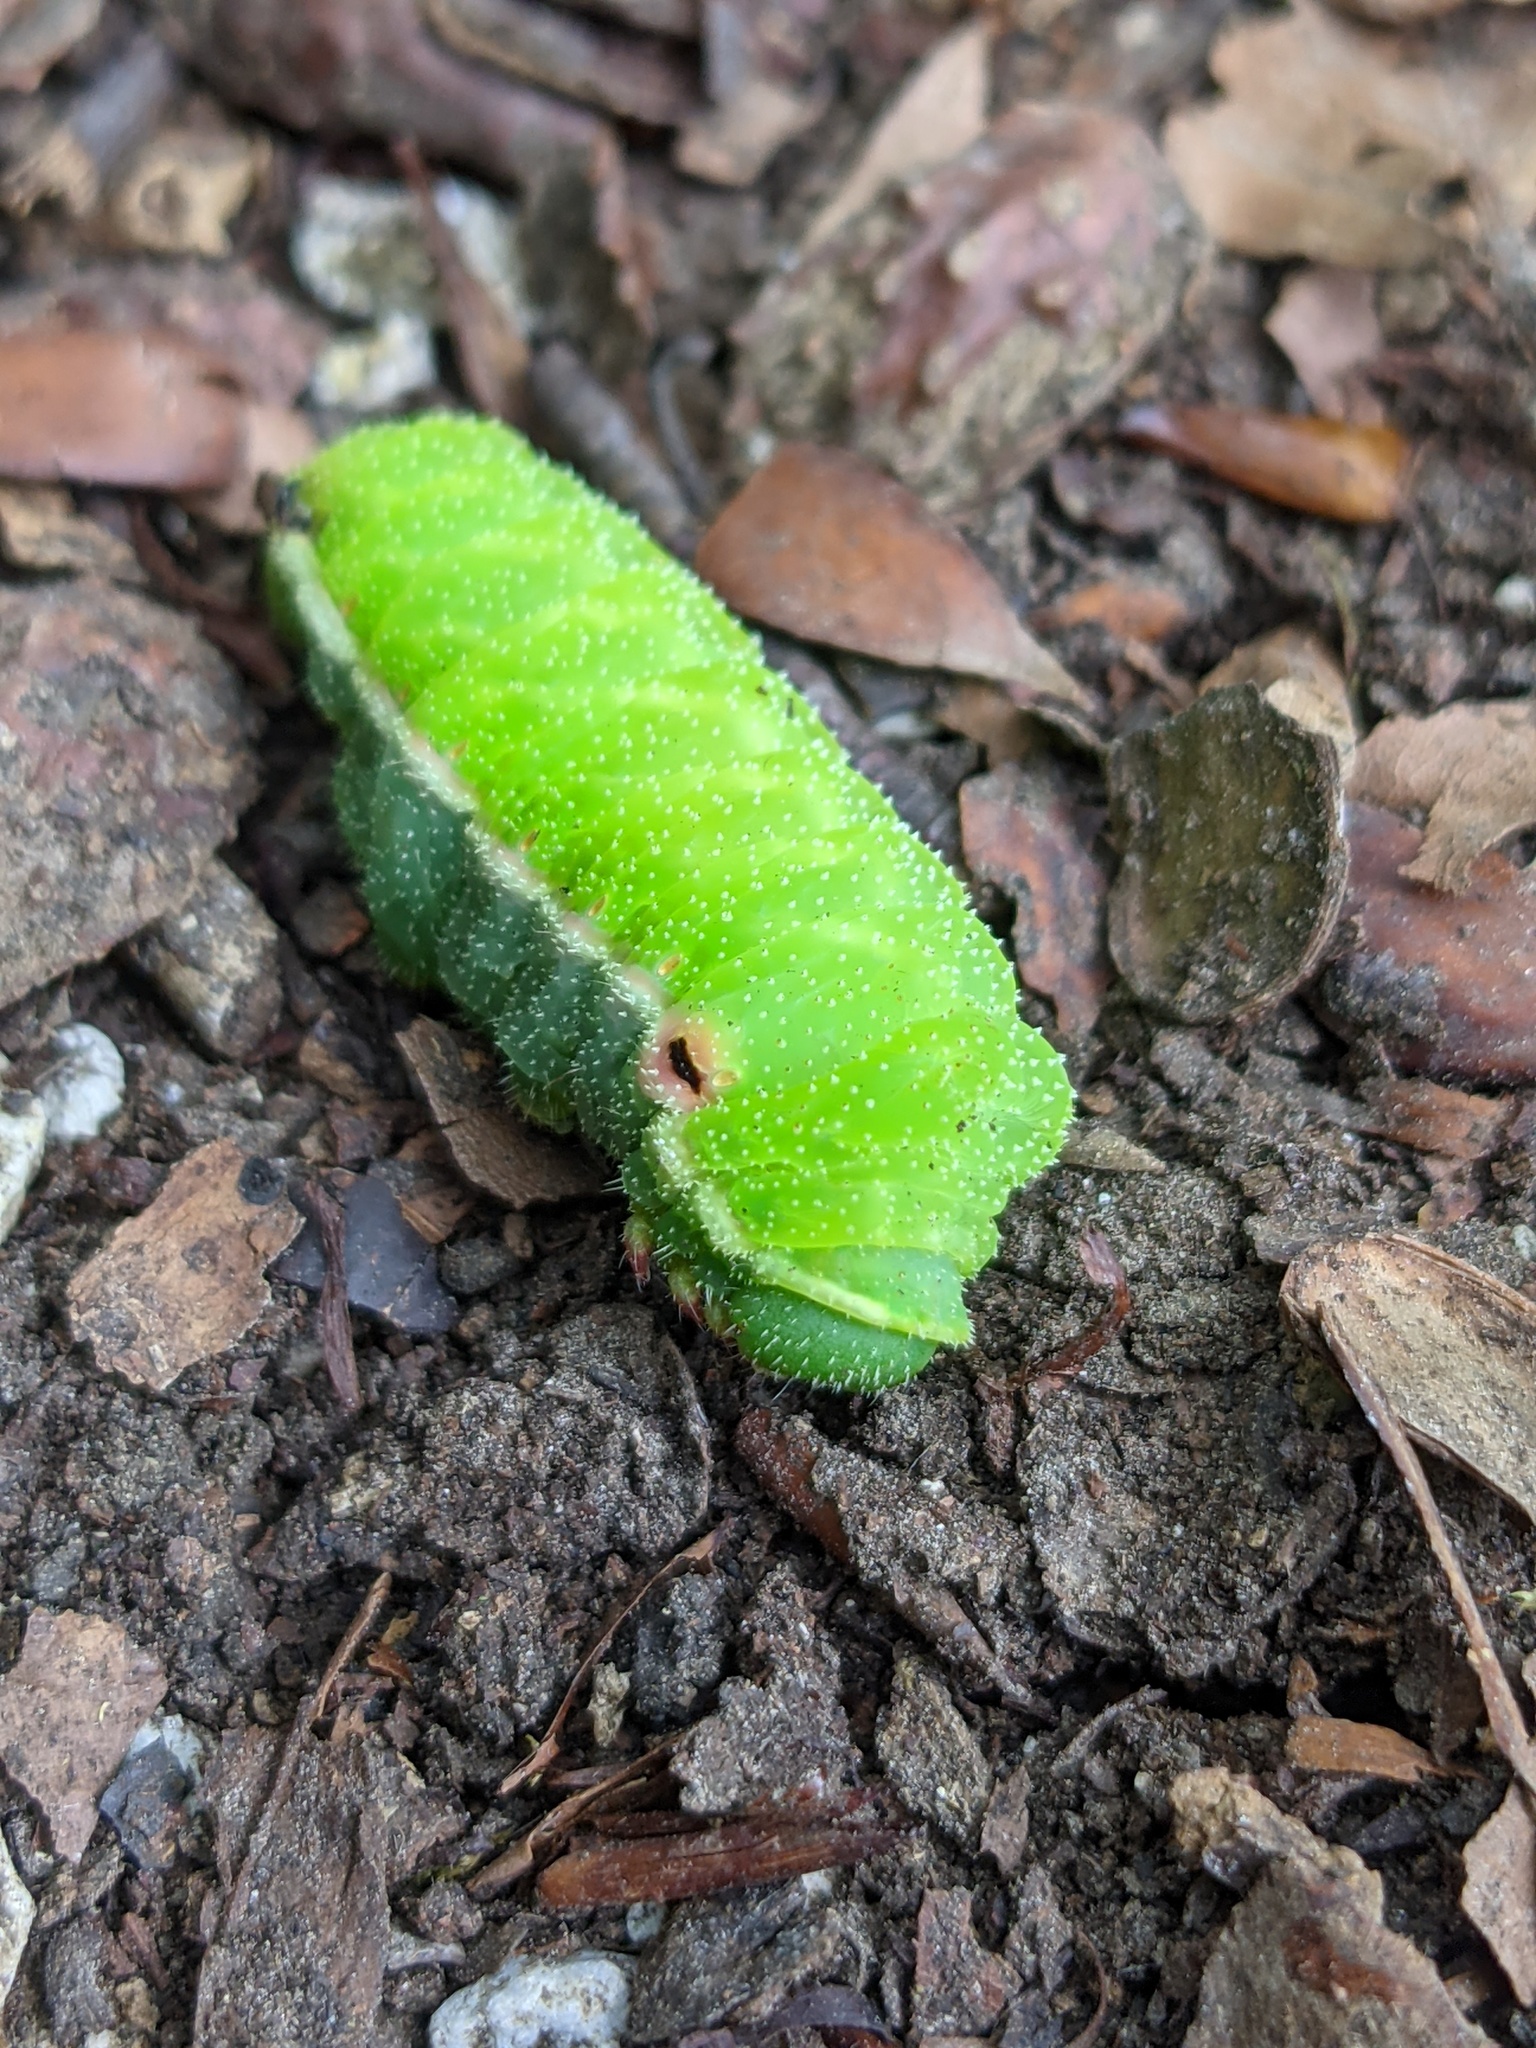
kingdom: Animalia
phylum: Arthropoda
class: Insecta
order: Lepidoptera
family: Saturniidae
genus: Aglia
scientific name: Aglia tau
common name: Tau emperor
